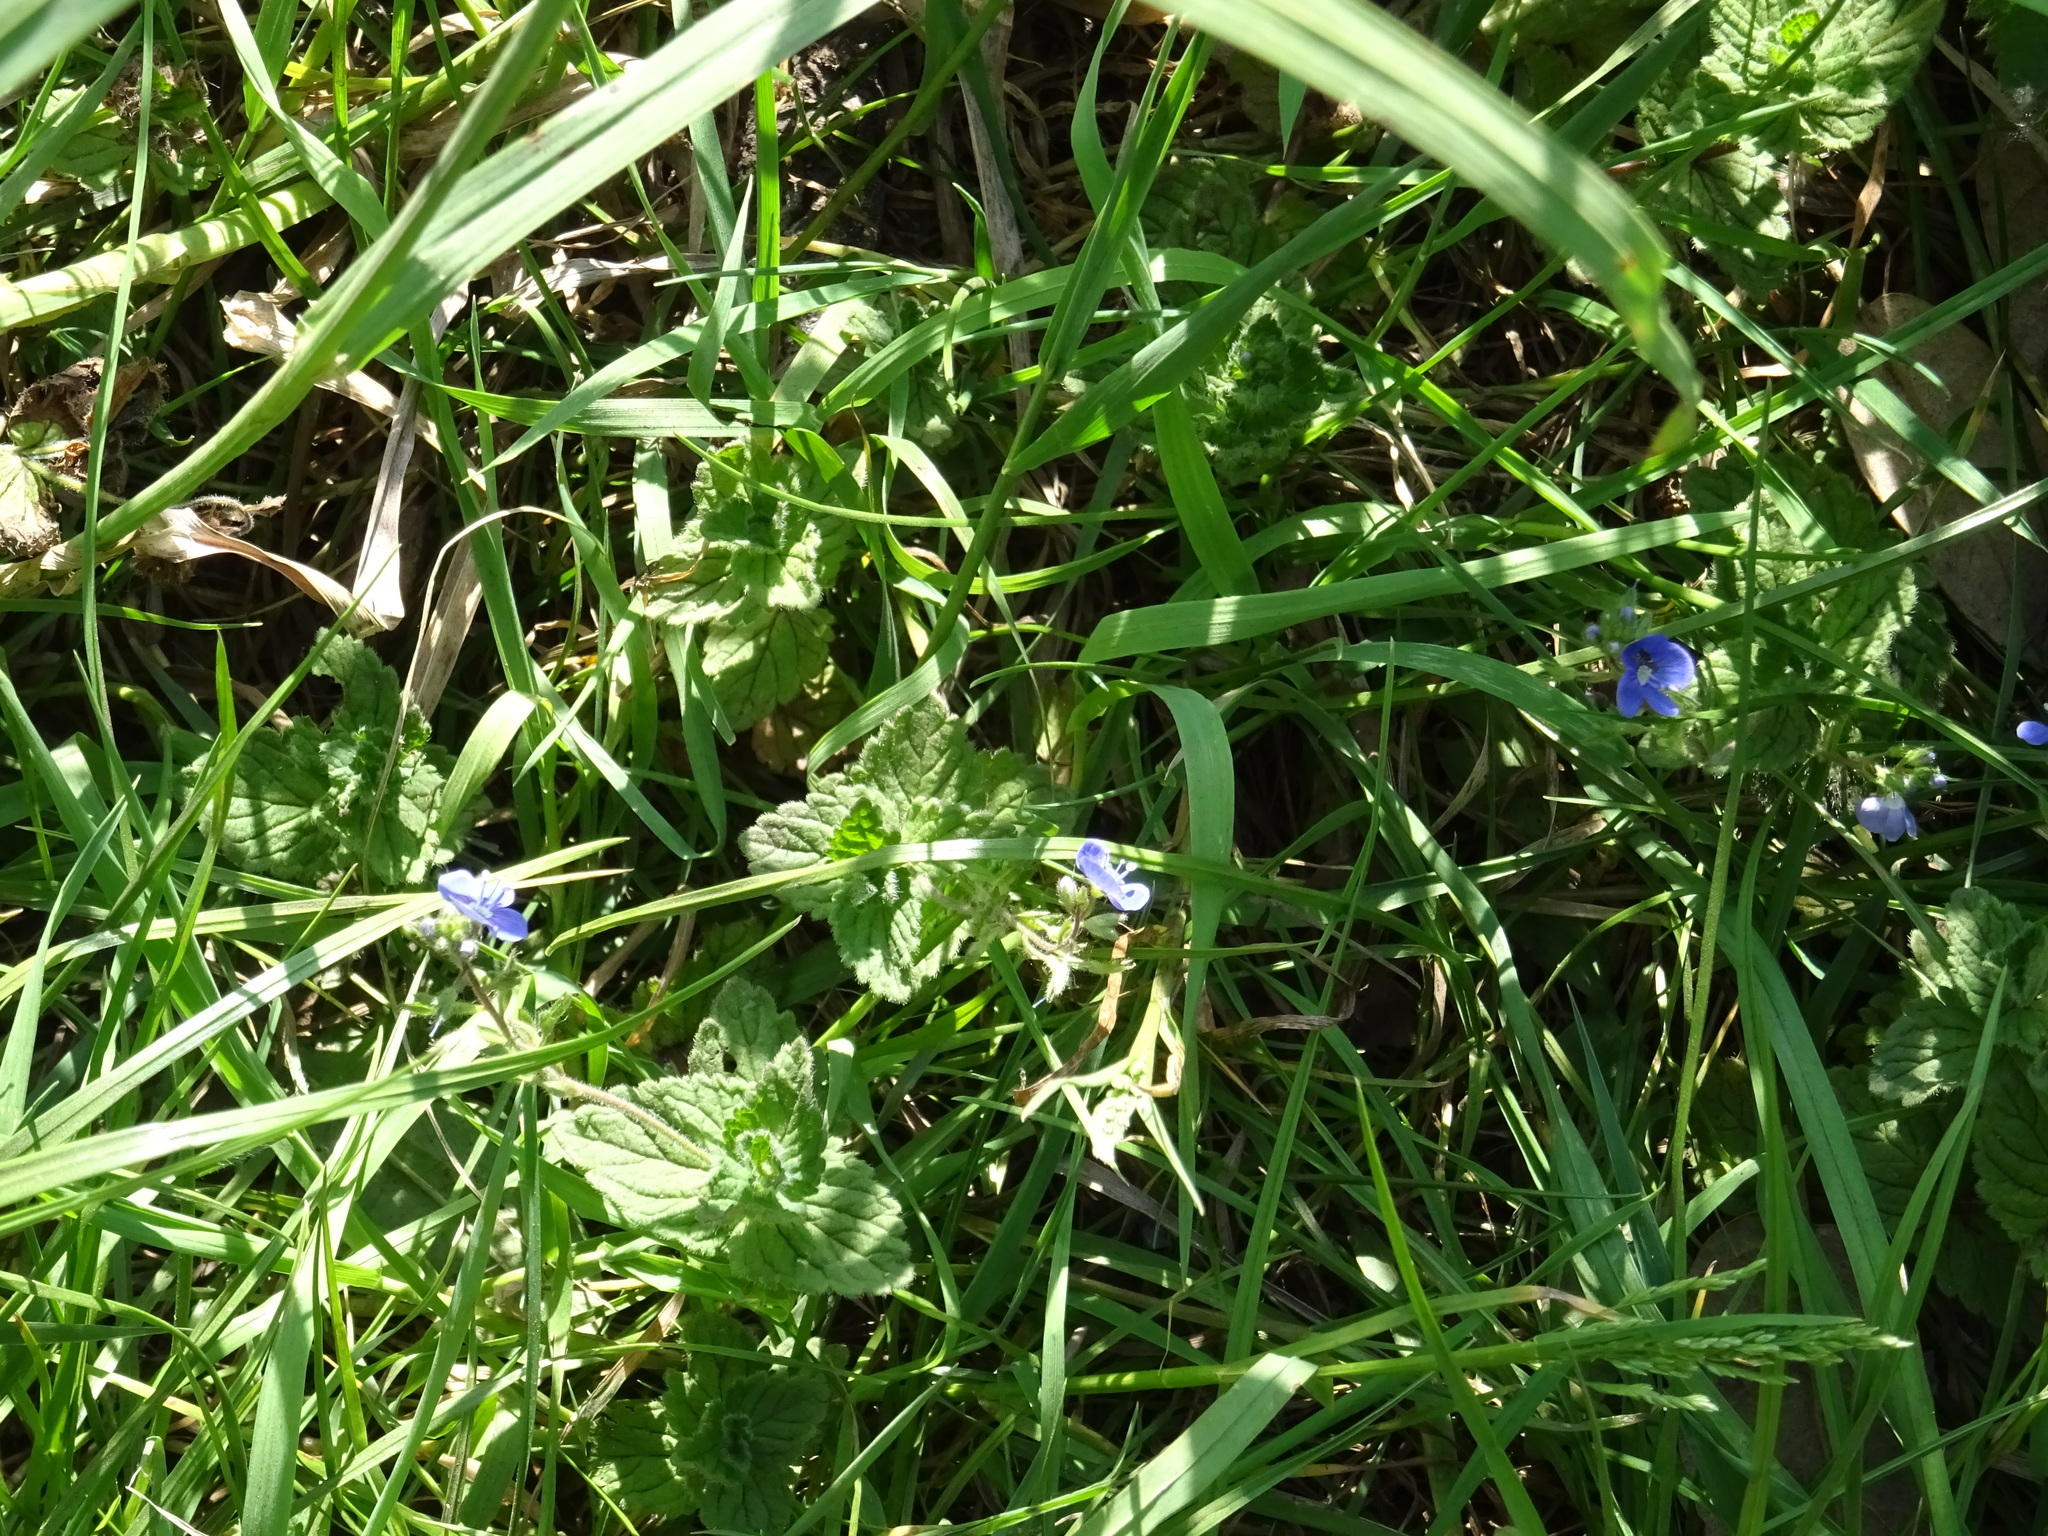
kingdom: Plantae
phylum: Tracheophyta
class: Magnoliopsida
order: Lamiales
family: Plantaginaceae
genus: Veronica
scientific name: Veronica chamaedrys
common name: Germander speedwell
